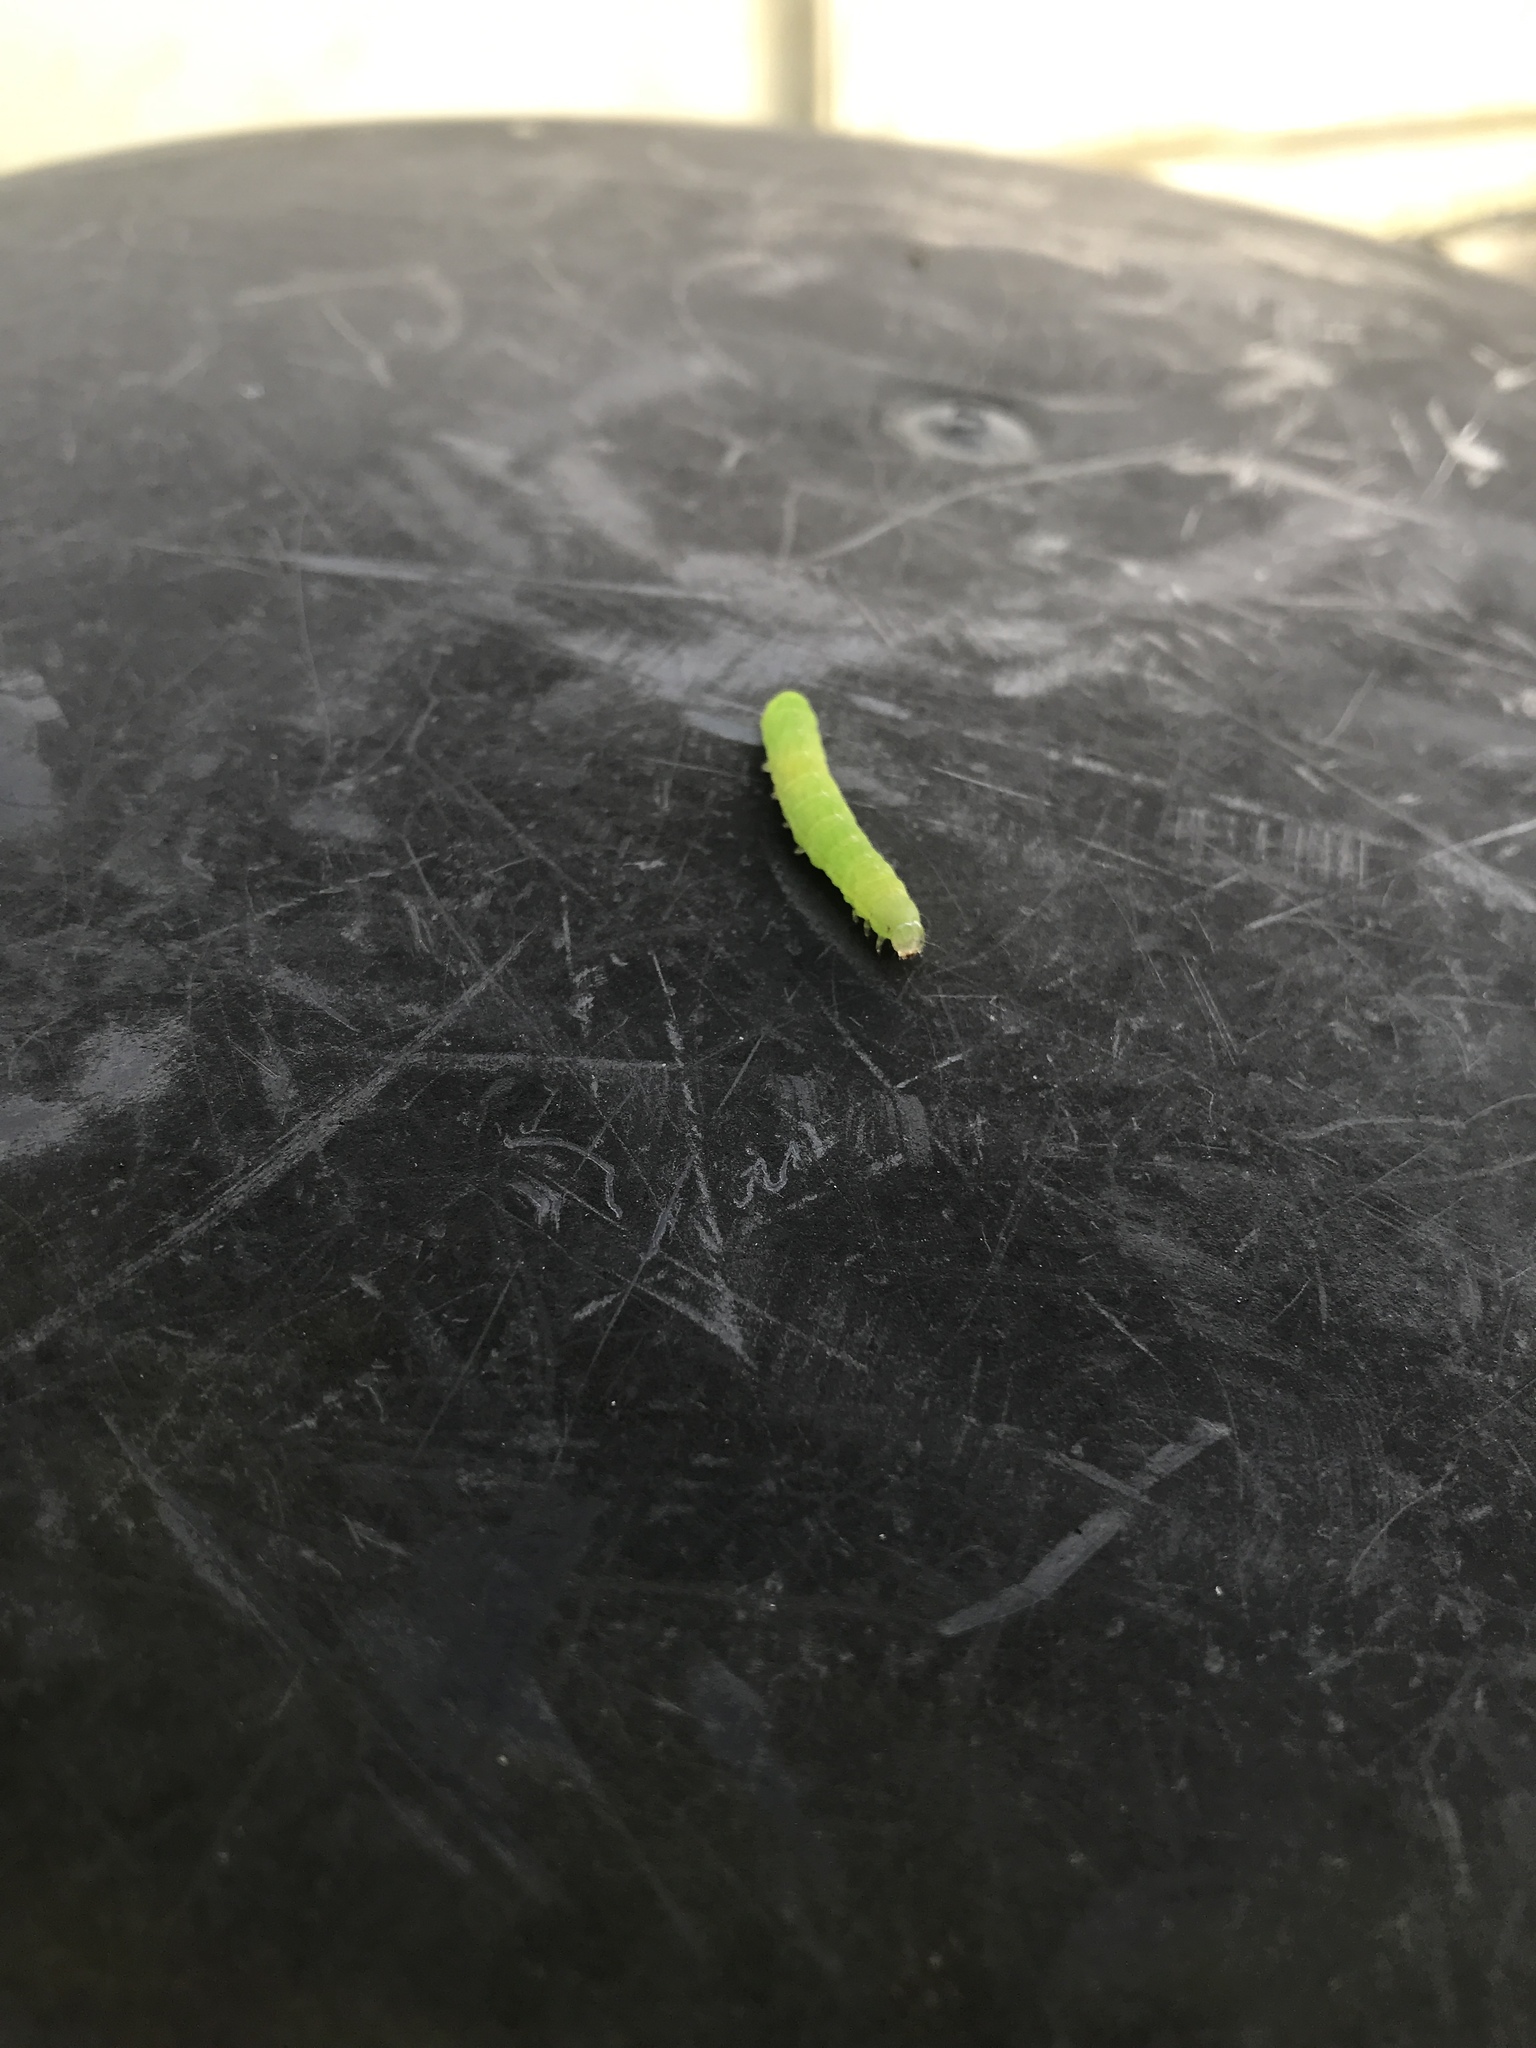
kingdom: Animalia
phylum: Arthropoda
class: Insecta
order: Lepidoptera
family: Noctuidae
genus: Phlogophora
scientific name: Phlogophora meticulosa
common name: Angle shades
